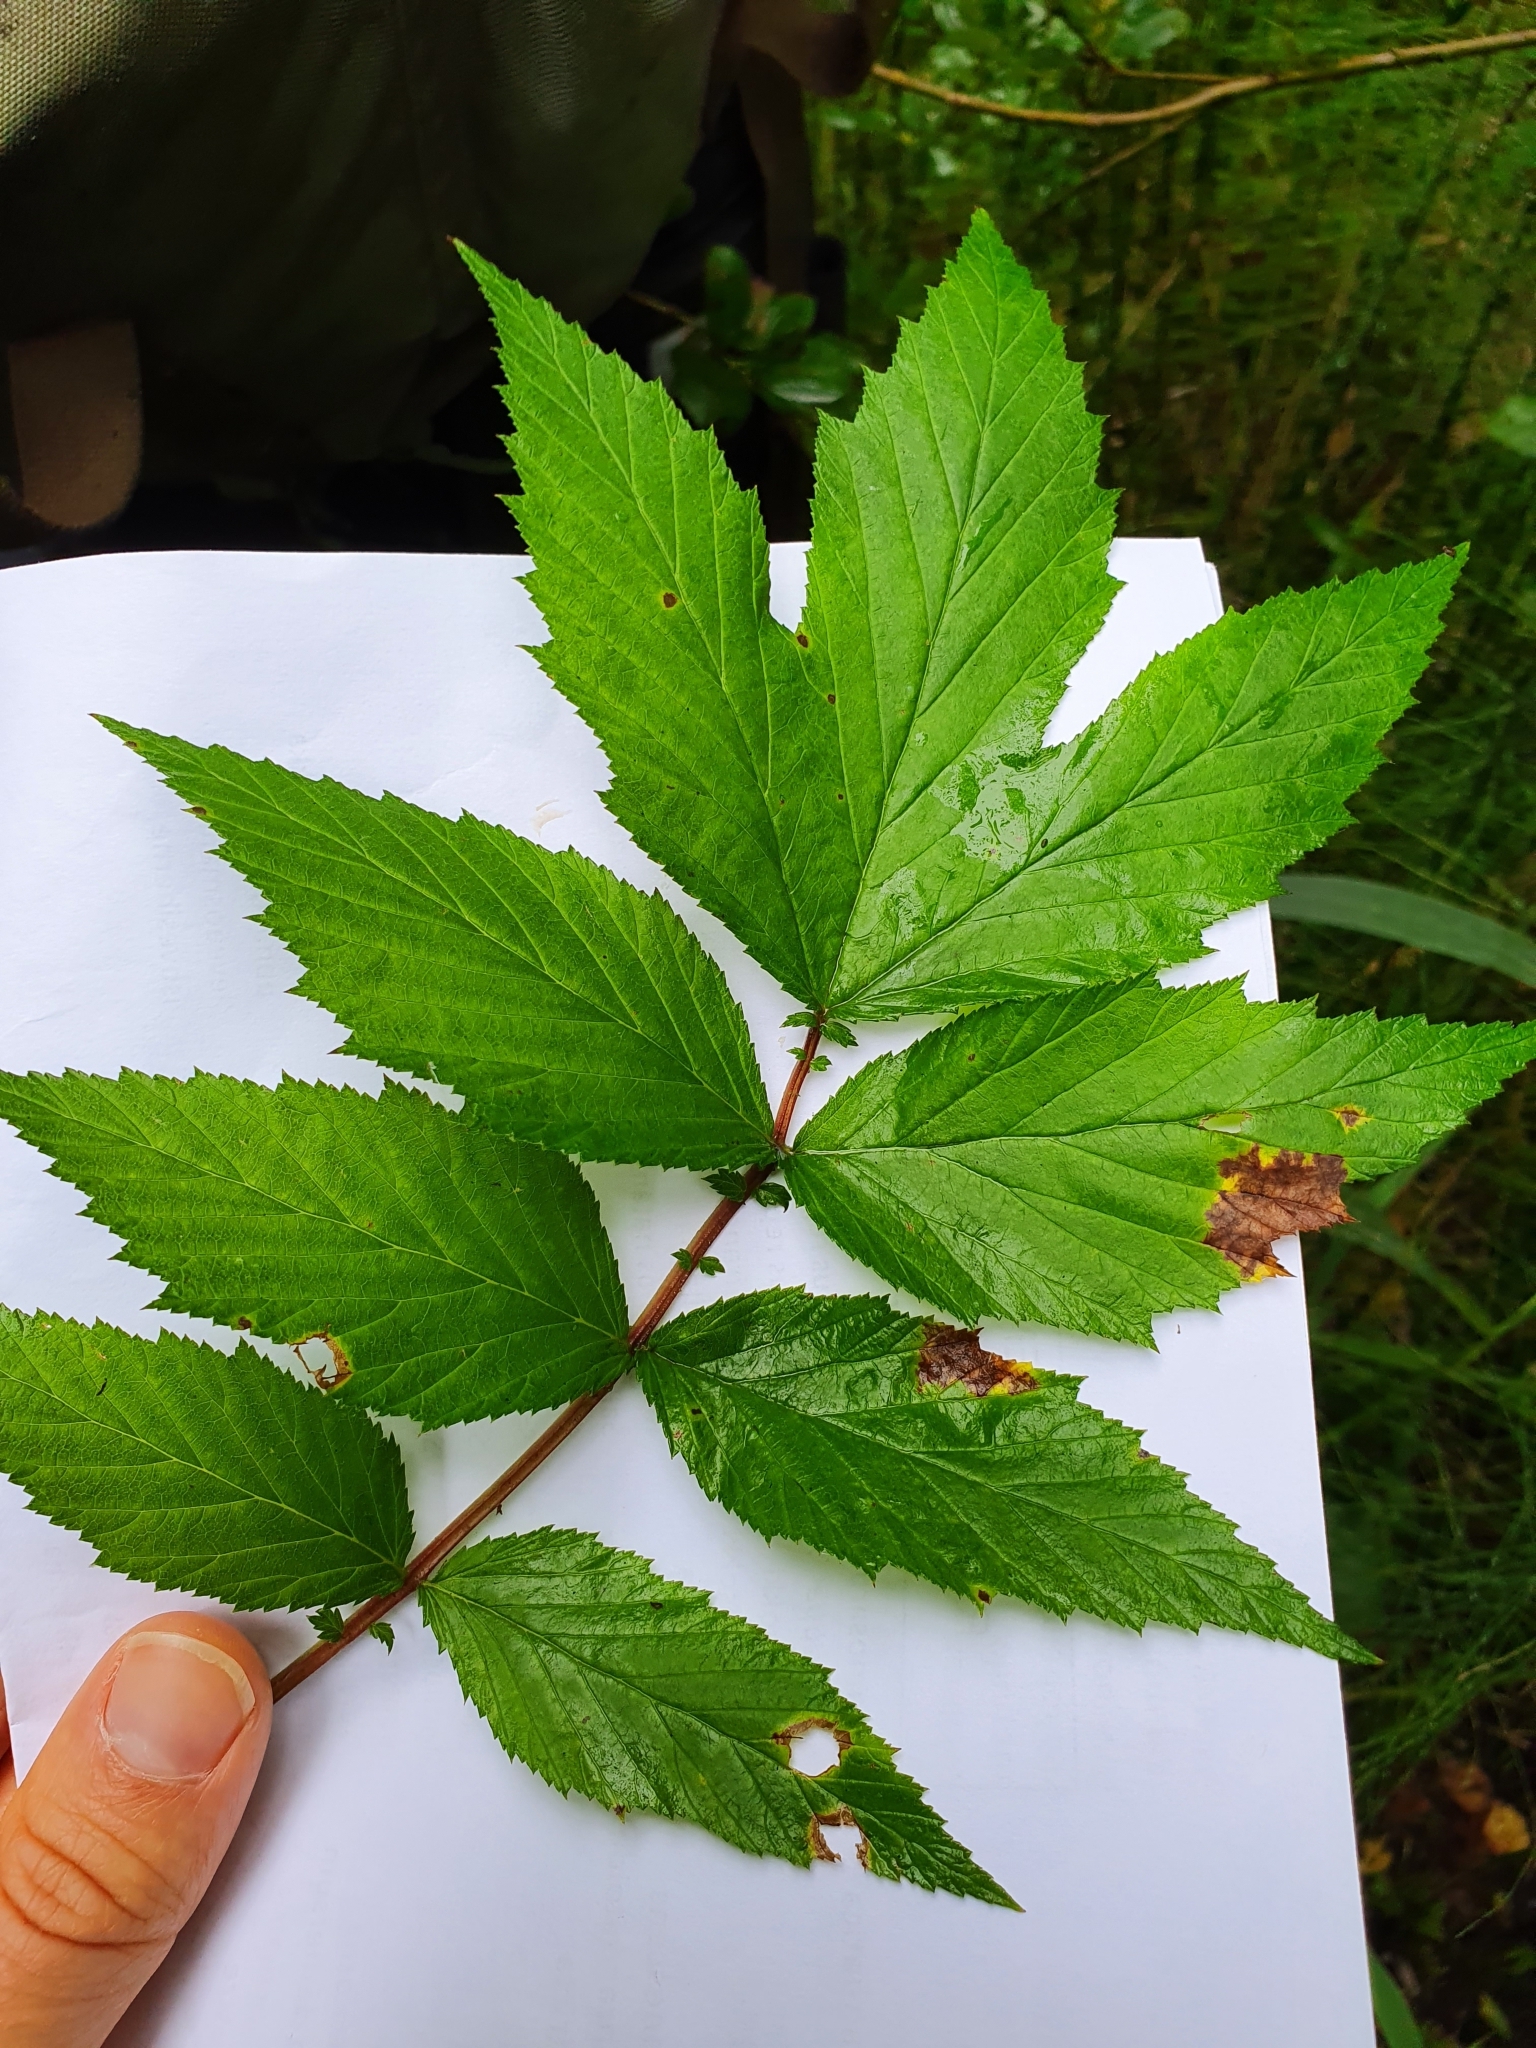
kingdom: Plantae
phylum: Tracheophyta
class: Magnoliopsida
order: Rosales
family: Rosaceae
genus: Filipendula
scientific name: Filipendula ulmaria
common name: Meadowsweet
